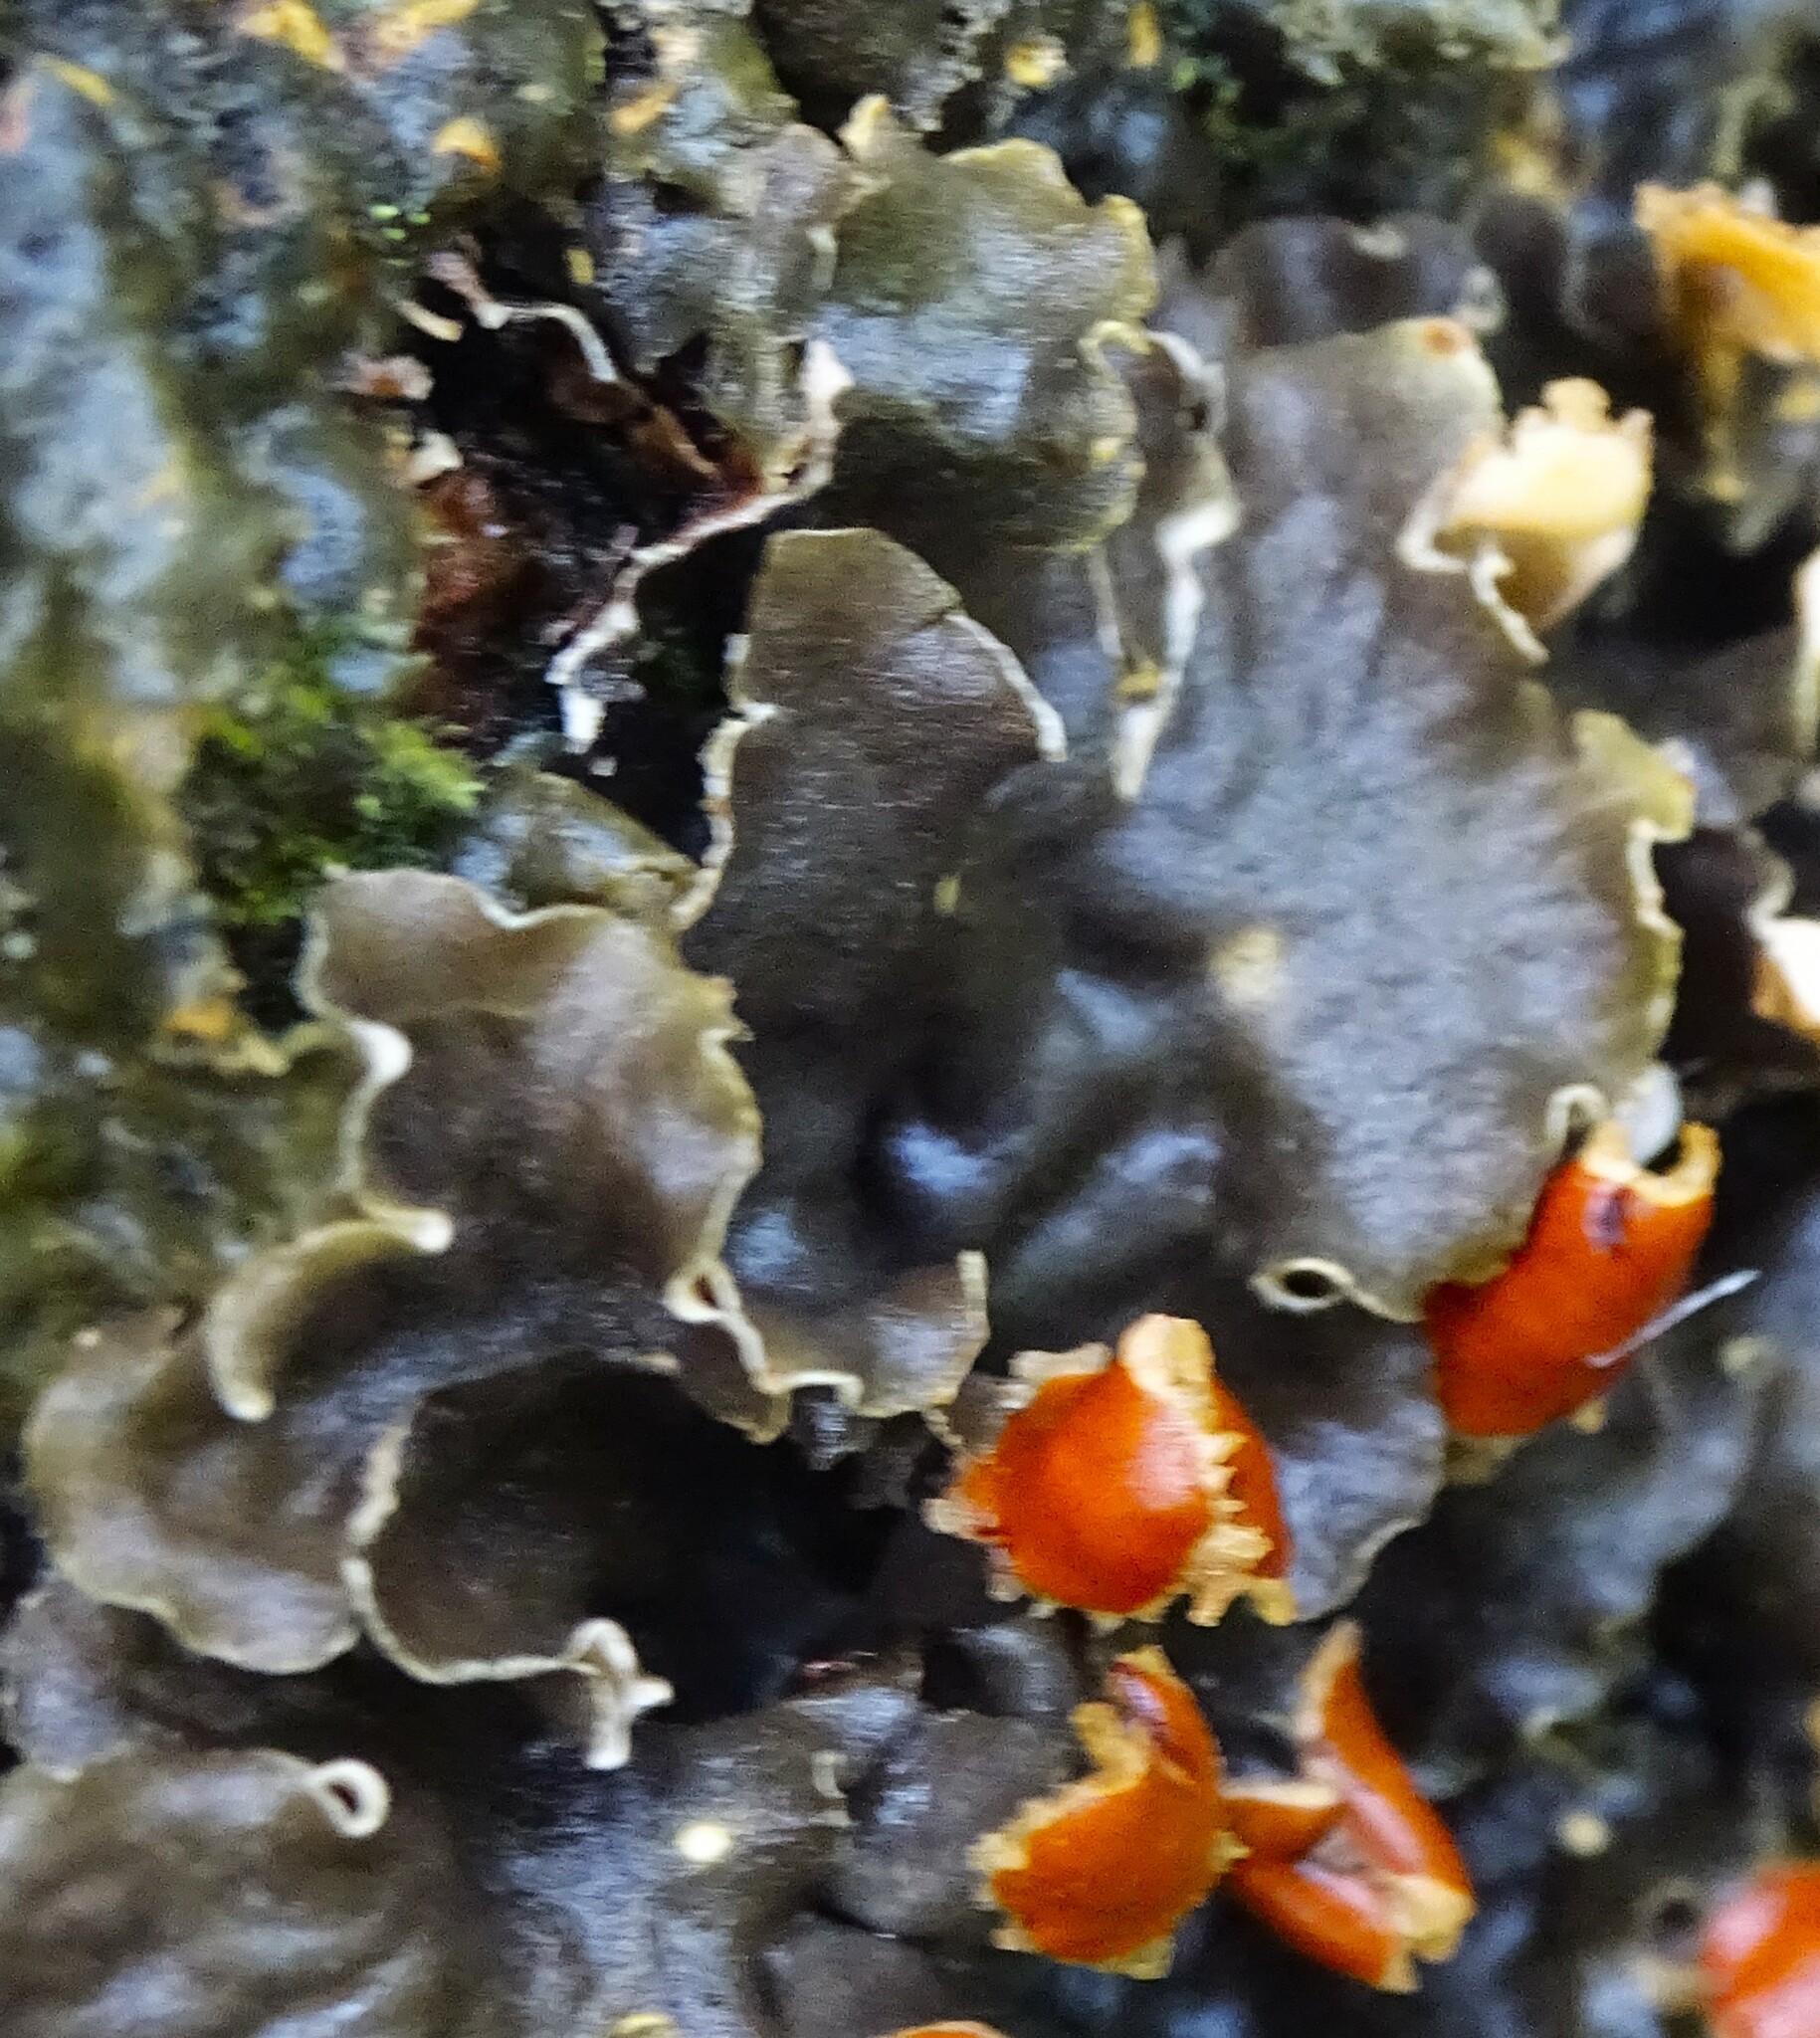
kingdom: Fungi
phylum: Ascomycota
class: Lecanoromycetes
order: Peltigerales
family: Peltigeraceae
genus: Peltigera
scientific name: Peltigera polydactylon
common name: Many-fruited pelt lichen
